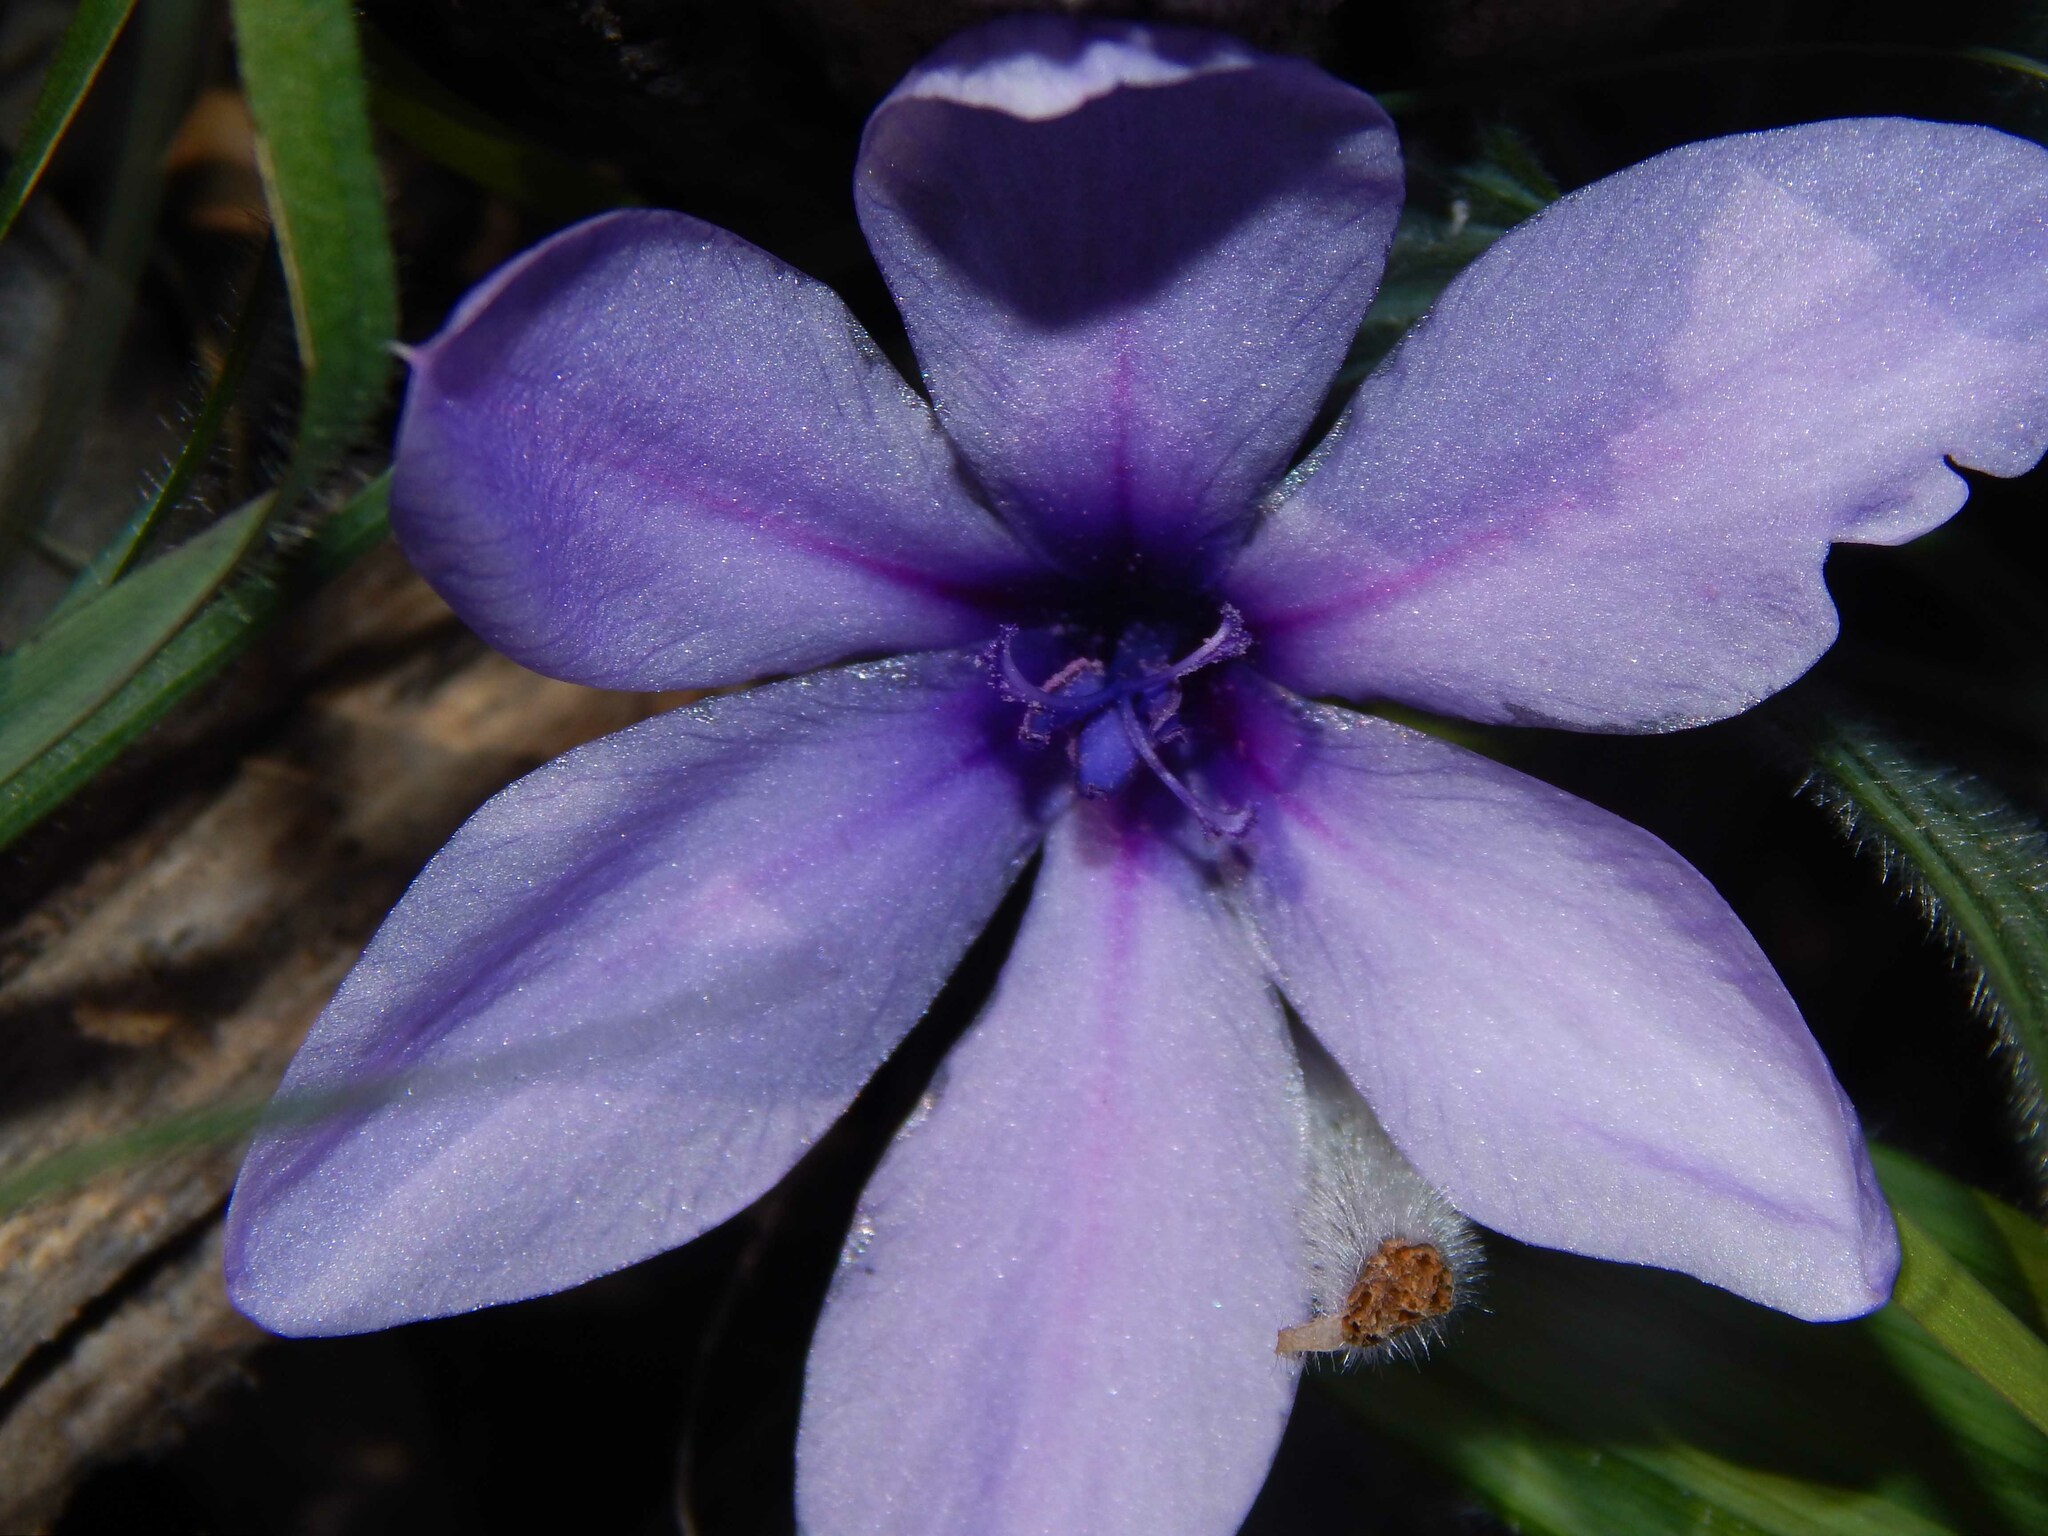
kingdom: Plantae
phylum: Tracheophyta
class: Liliopsida
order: Asparagales
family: Iridaceae
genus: Babiana
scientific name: Babiana villosula
